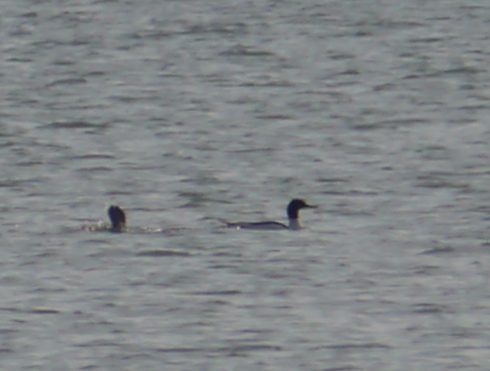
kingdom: Animalia
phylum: Chordata
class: Aves
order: Anseriformes
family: Anatidae
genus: Mergus
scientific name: Mergus merganser
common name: Common merganser
